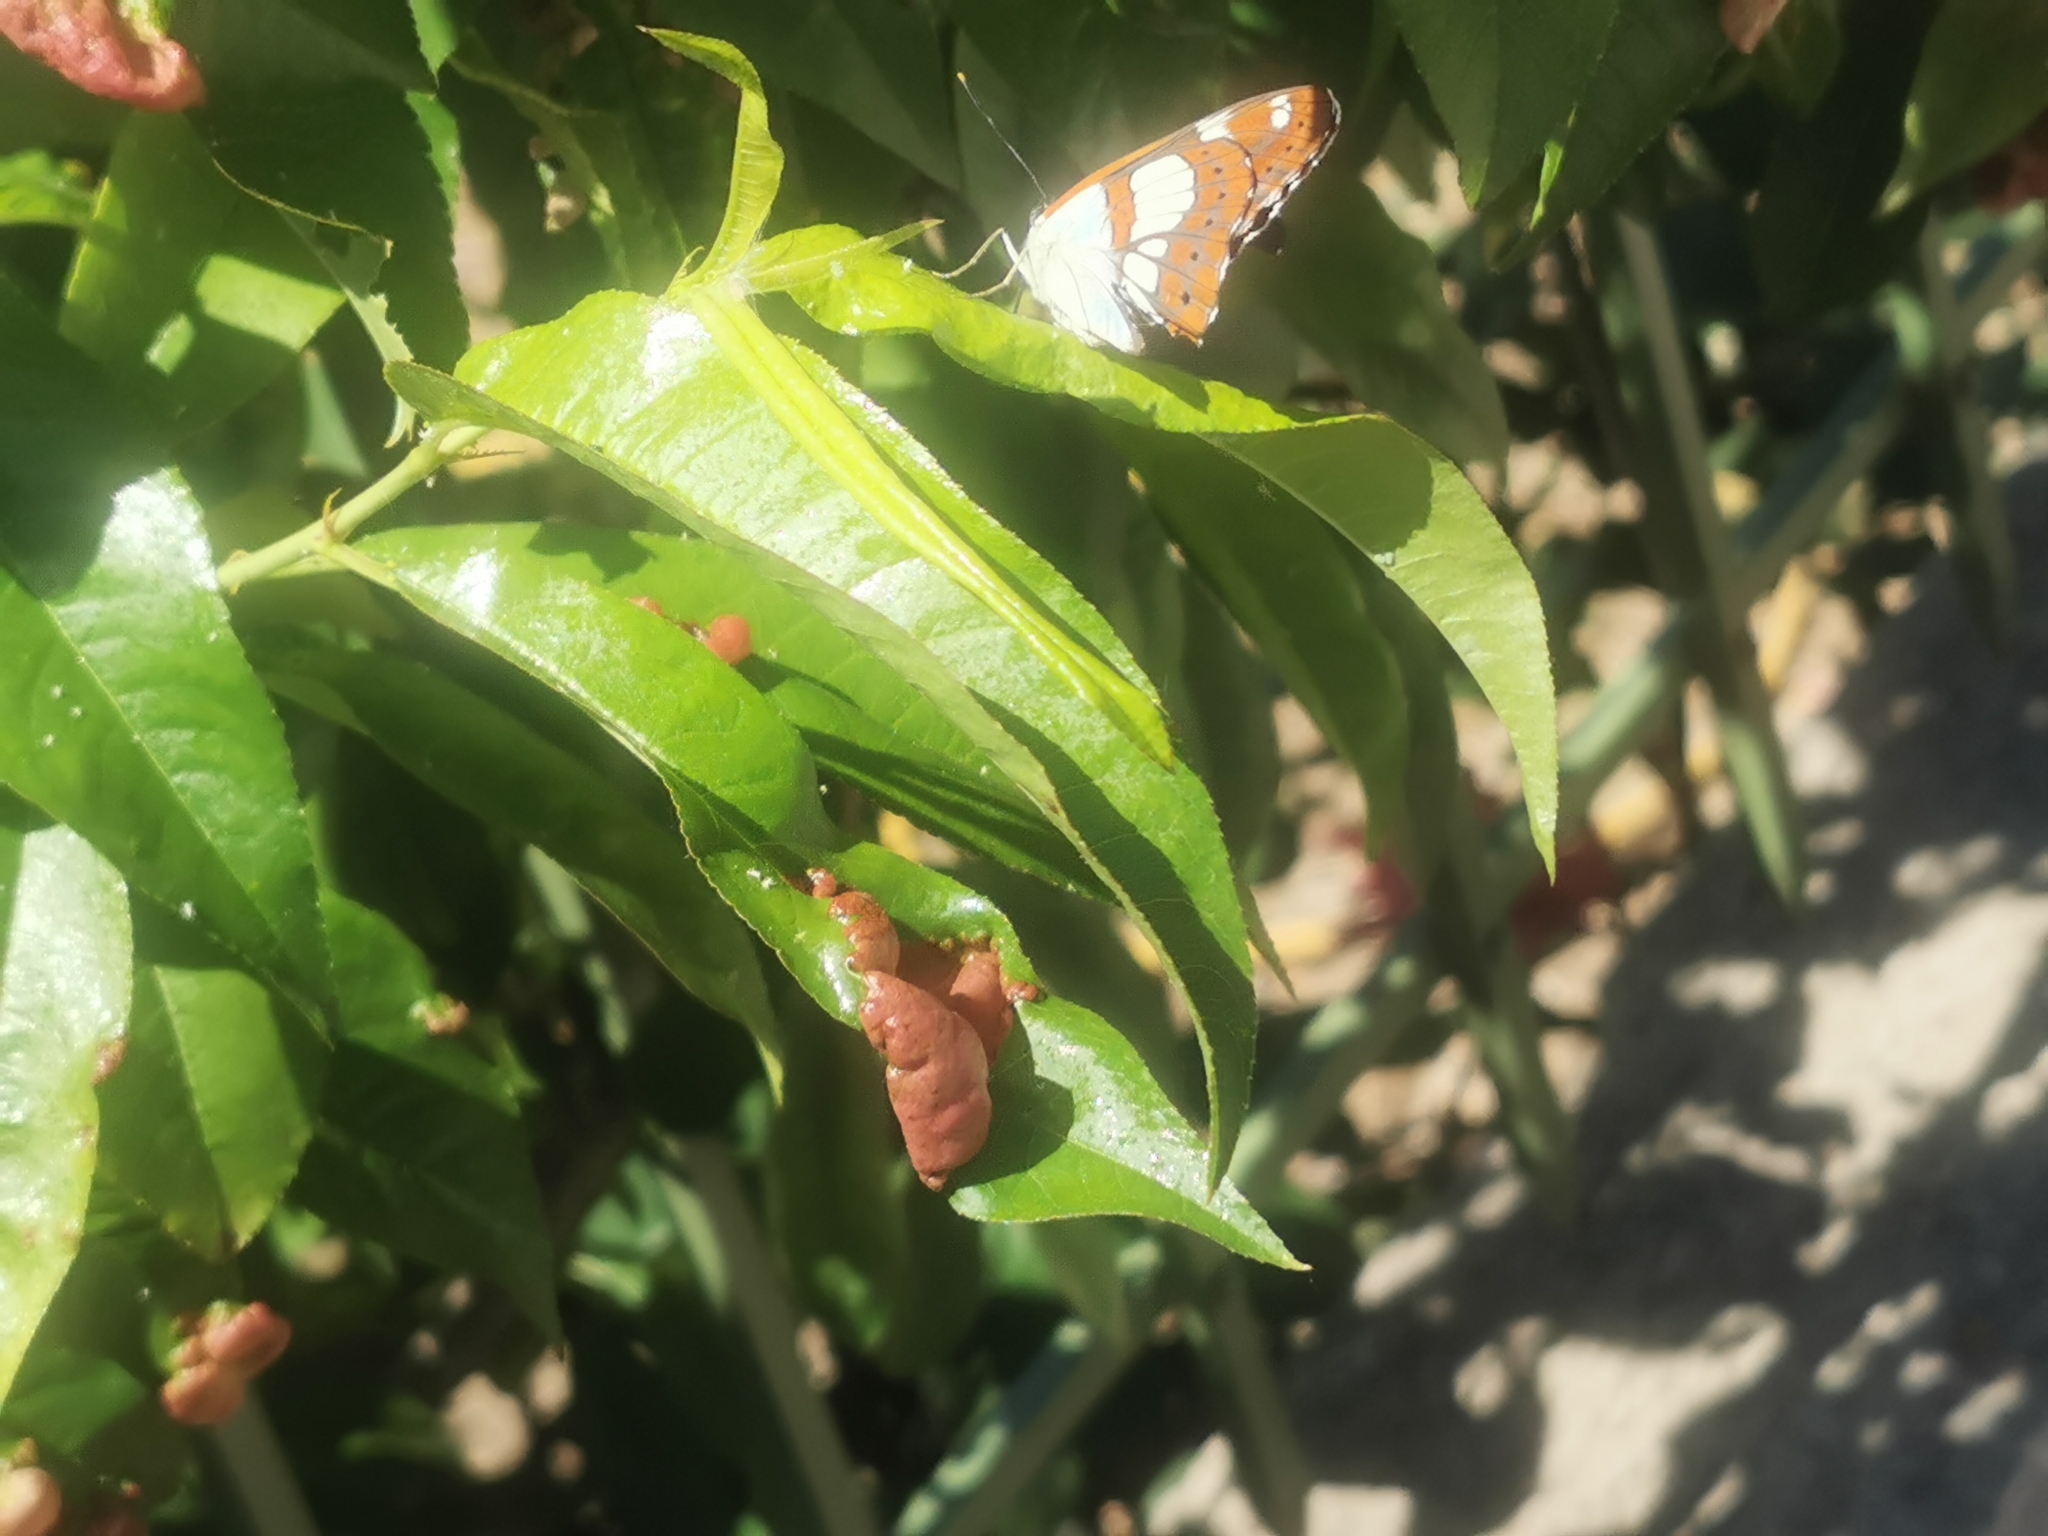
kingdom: Animalia
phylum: Arthropoda
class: Insecta
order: Lepidoptera
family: Nymphalidae
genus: Limenitis
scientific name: Limenitis reducta
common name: Southern white admiral
